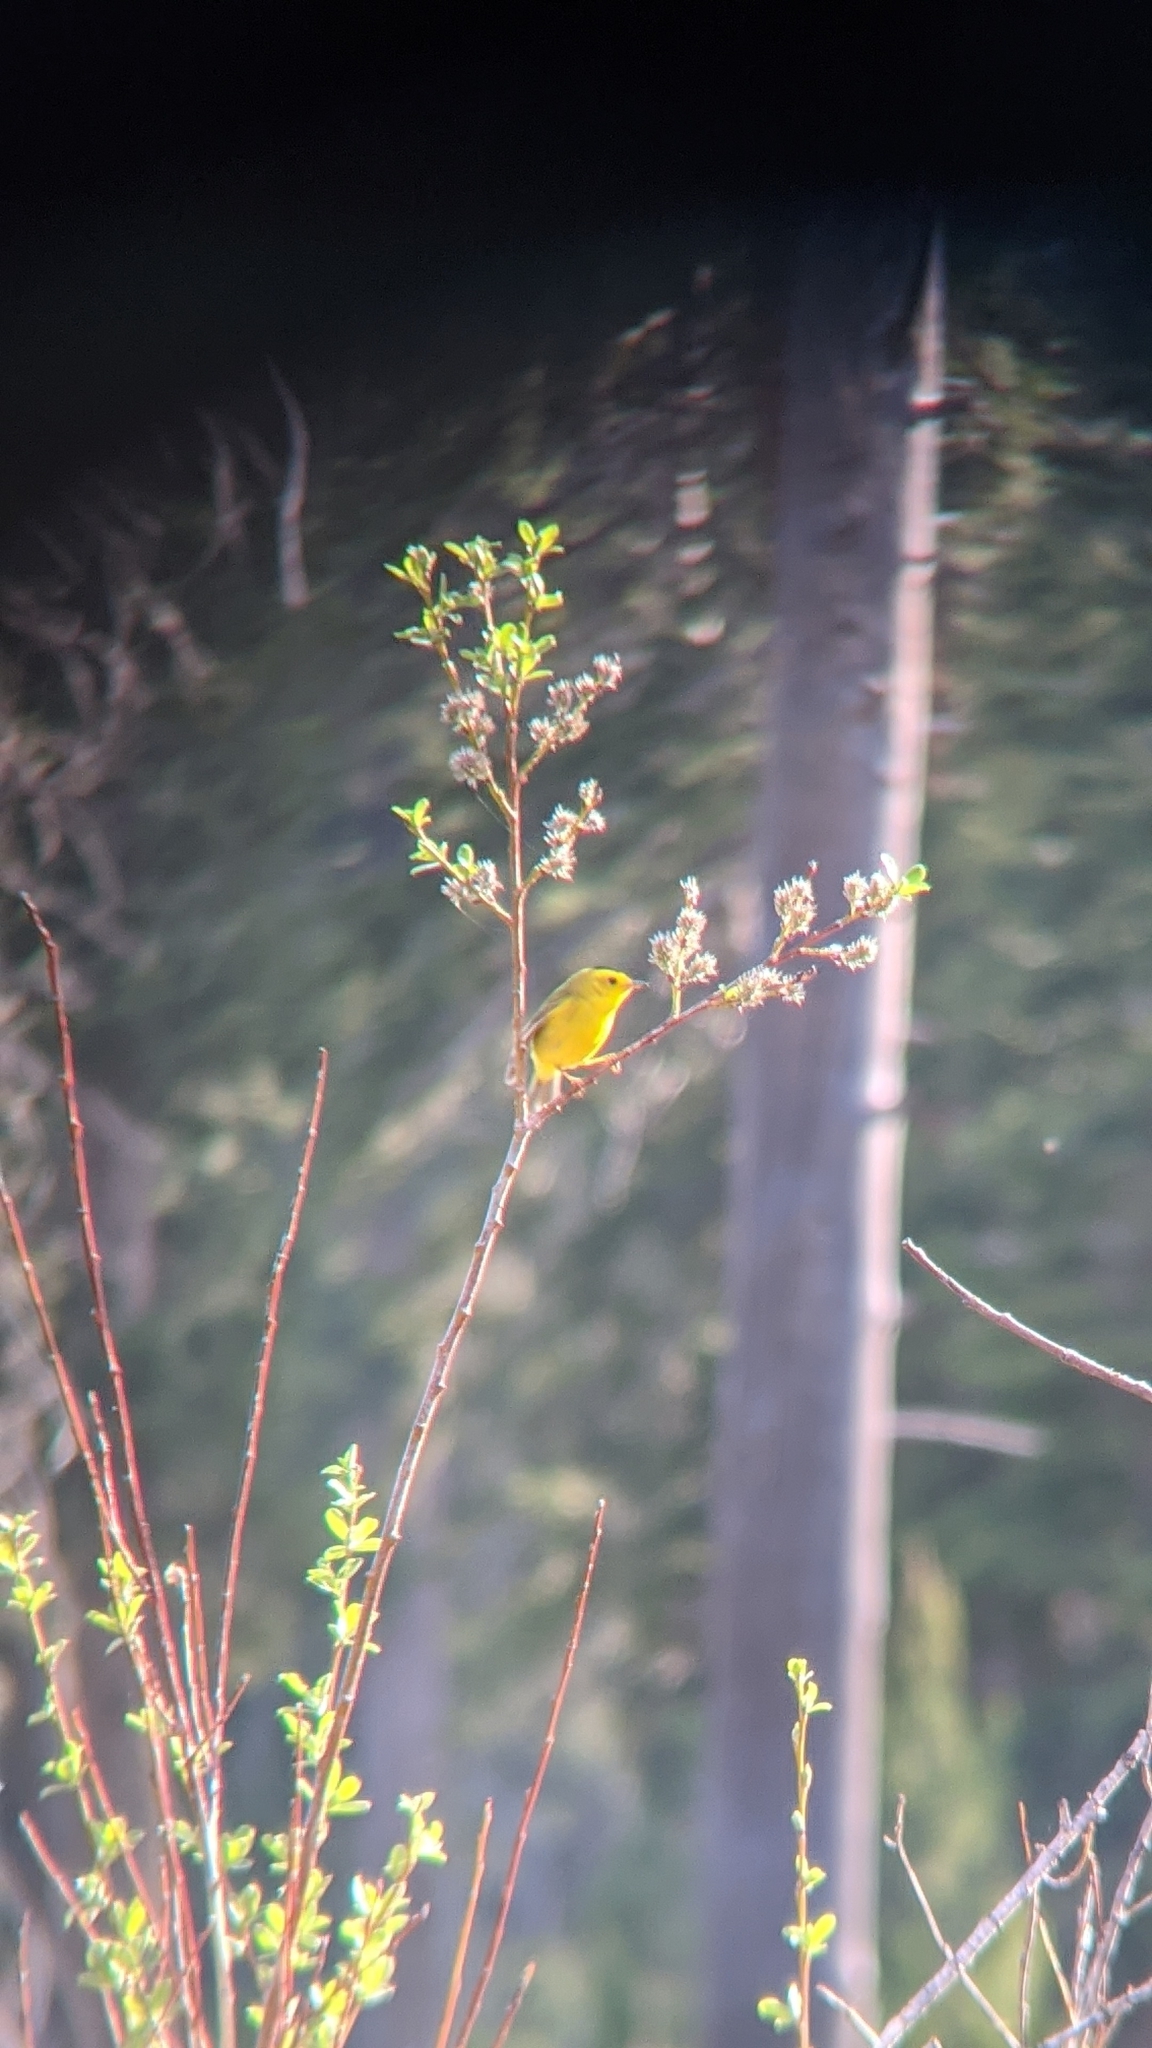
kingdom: Animalia
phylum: Chordata
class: Aves
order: Passeriformes
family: Parulidae
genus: Cardellina
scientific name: Cardellina pusilla
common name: Wilson's warbler
